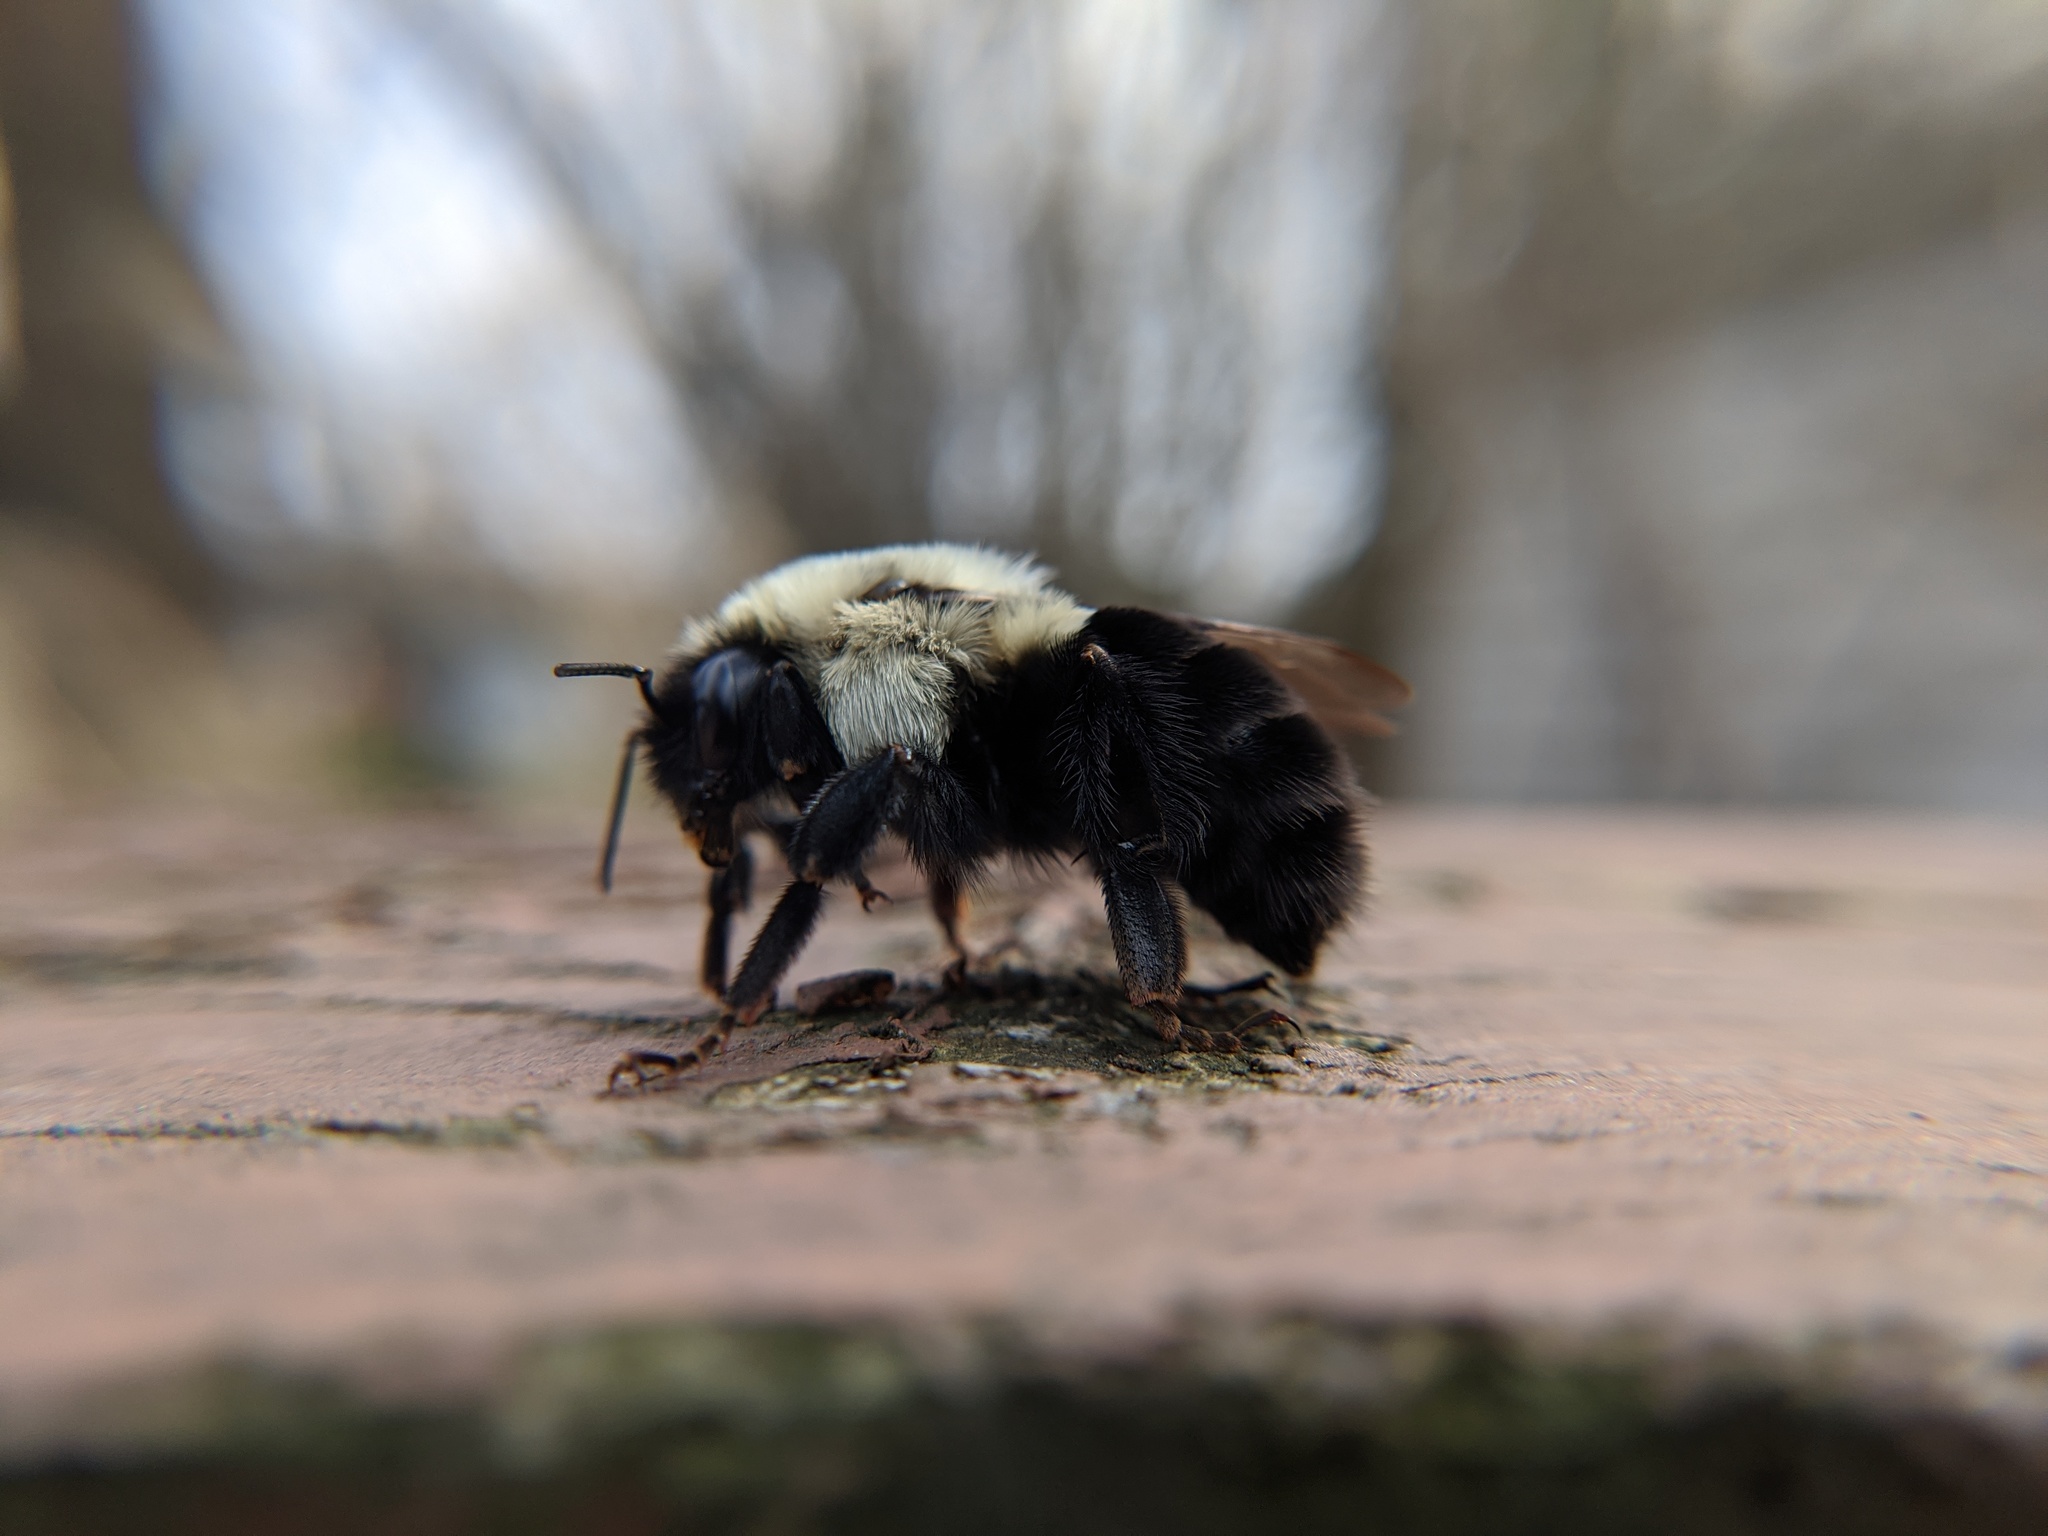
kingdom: Animalia
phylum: Arthropoda
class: Insecta
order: Hymenoptera
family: Apidae
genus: Bombus
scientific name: Bombus impatiens
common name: Common eastern bumble bee
